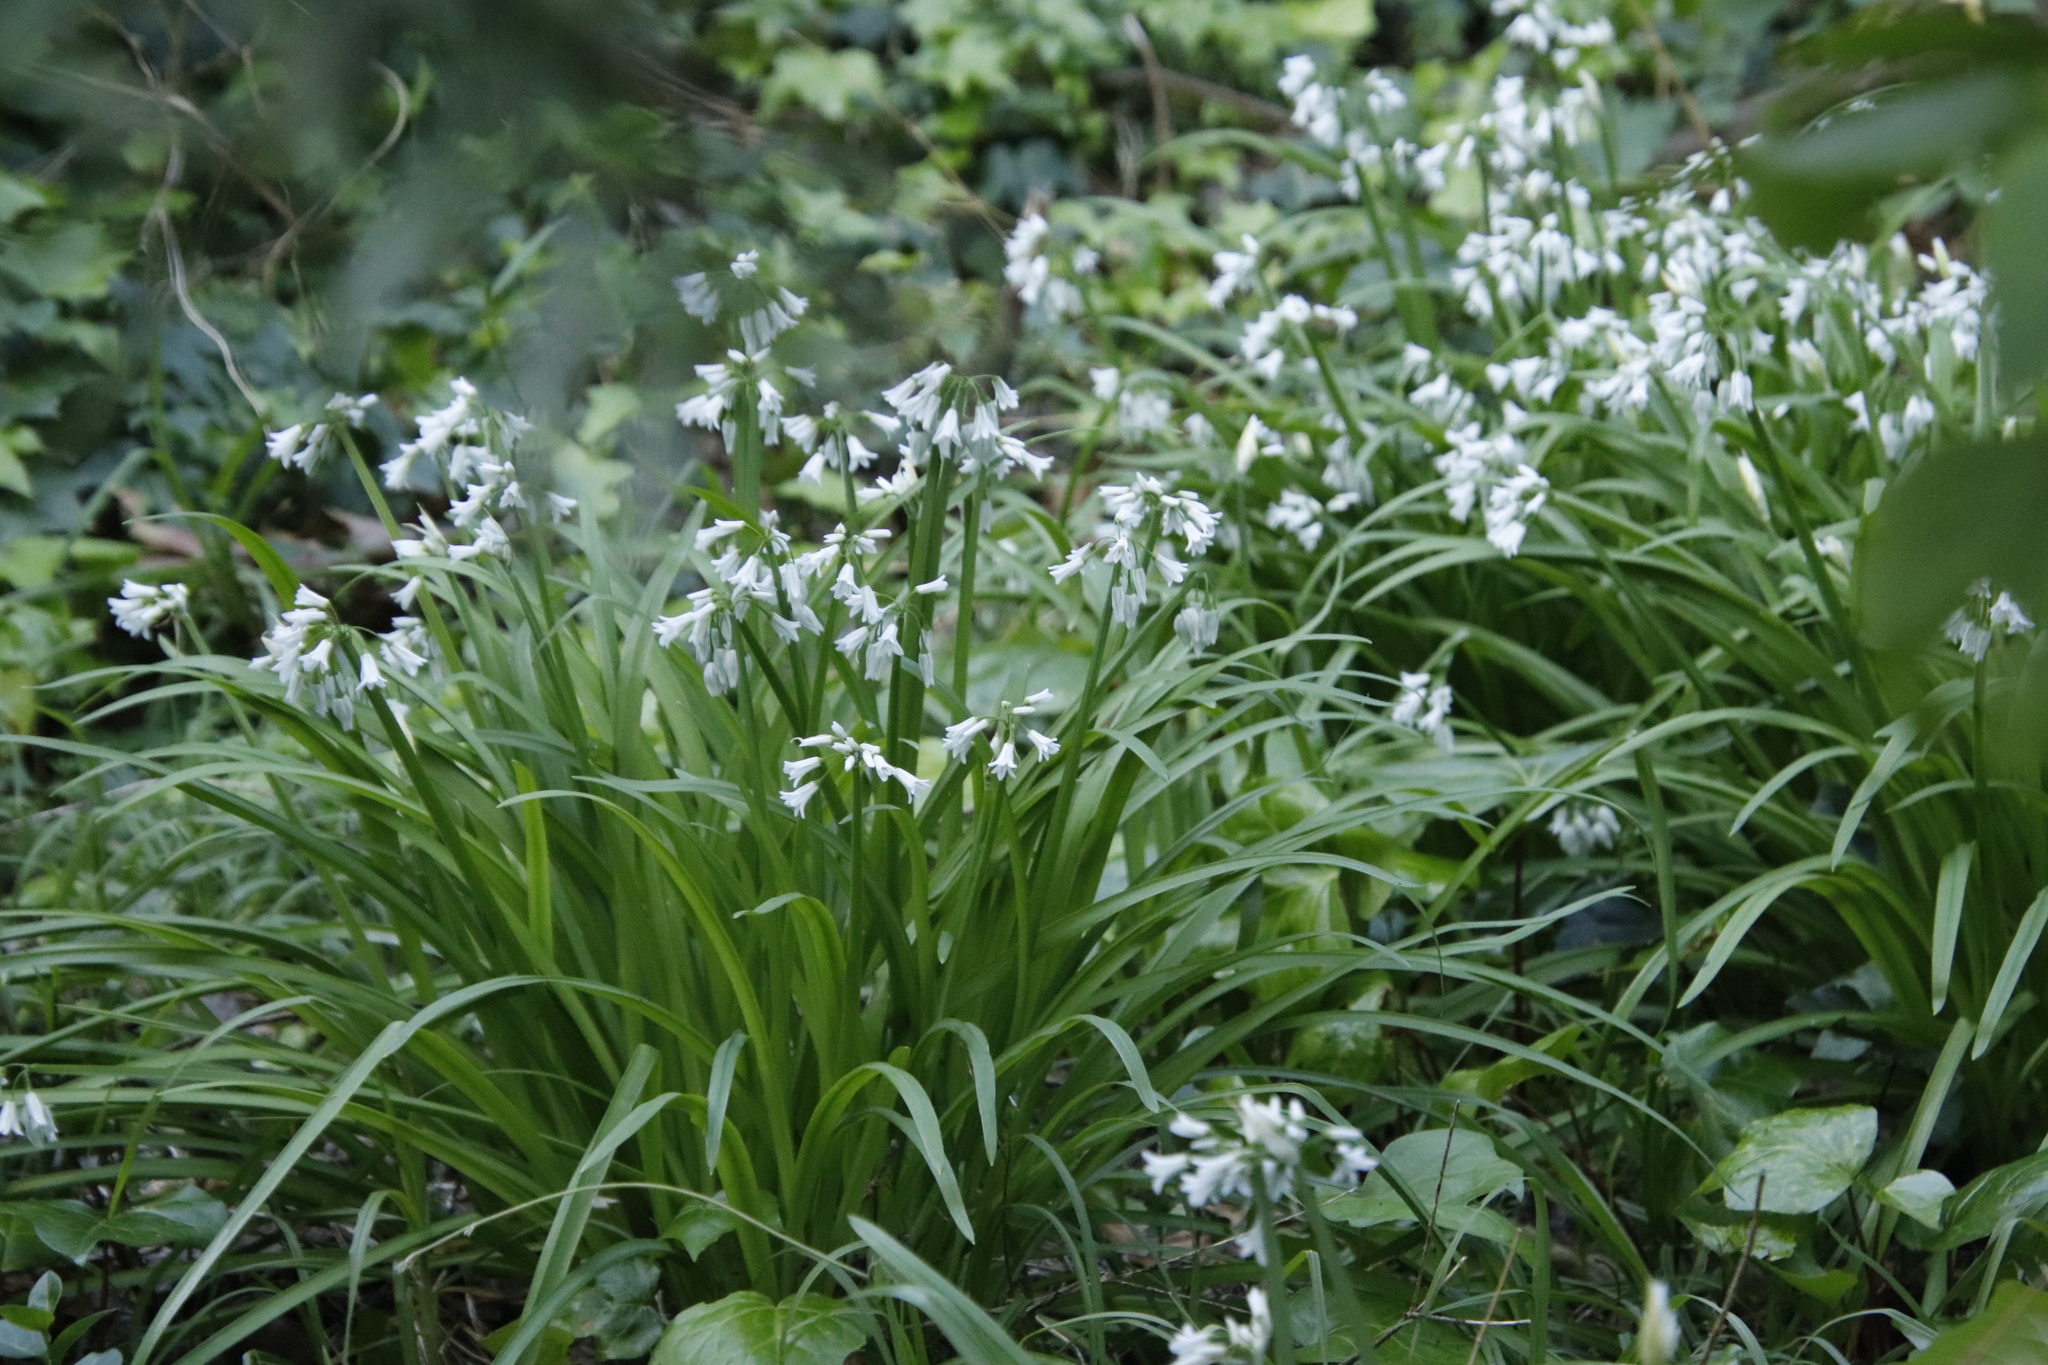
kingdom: Plantae
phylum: Tracheophyta
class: Liliopsida
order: Asparagales
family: Amaryllidaceae
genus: Allium
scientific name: Allium triquetrum
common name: Three-cornered garlic
